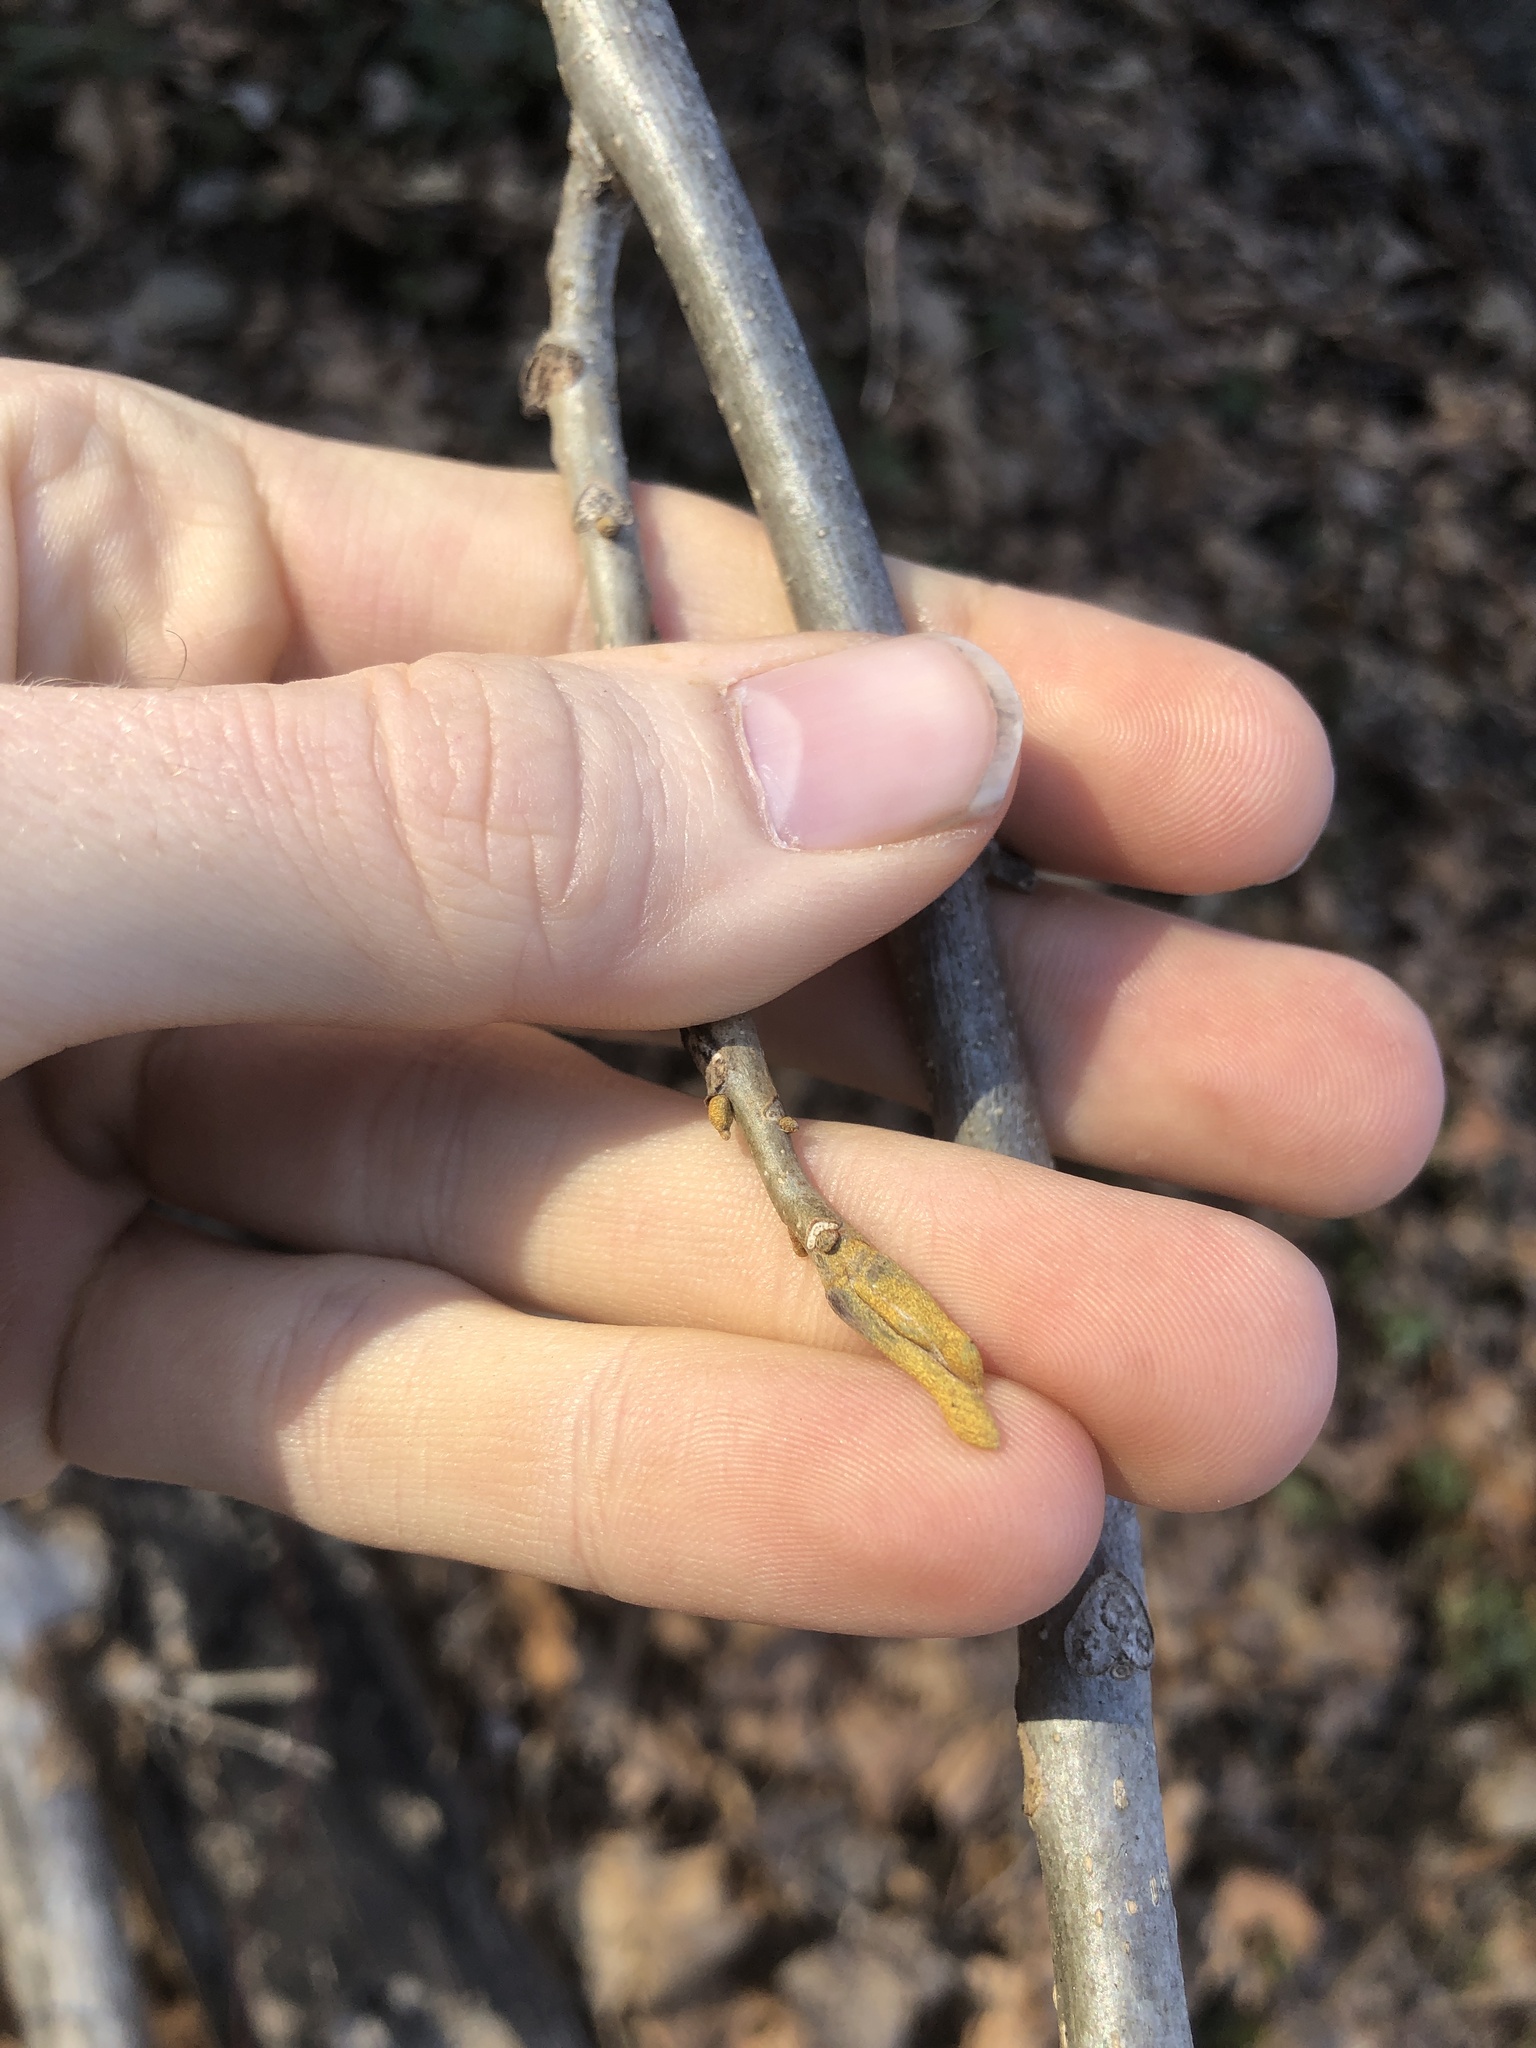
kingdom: Plantae
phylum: Tracheophyta
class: Magnoliopsida
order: Fagales
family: Juglandaceae
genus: Carya
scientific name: Carya cordiformis
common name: Bitternut hickory
